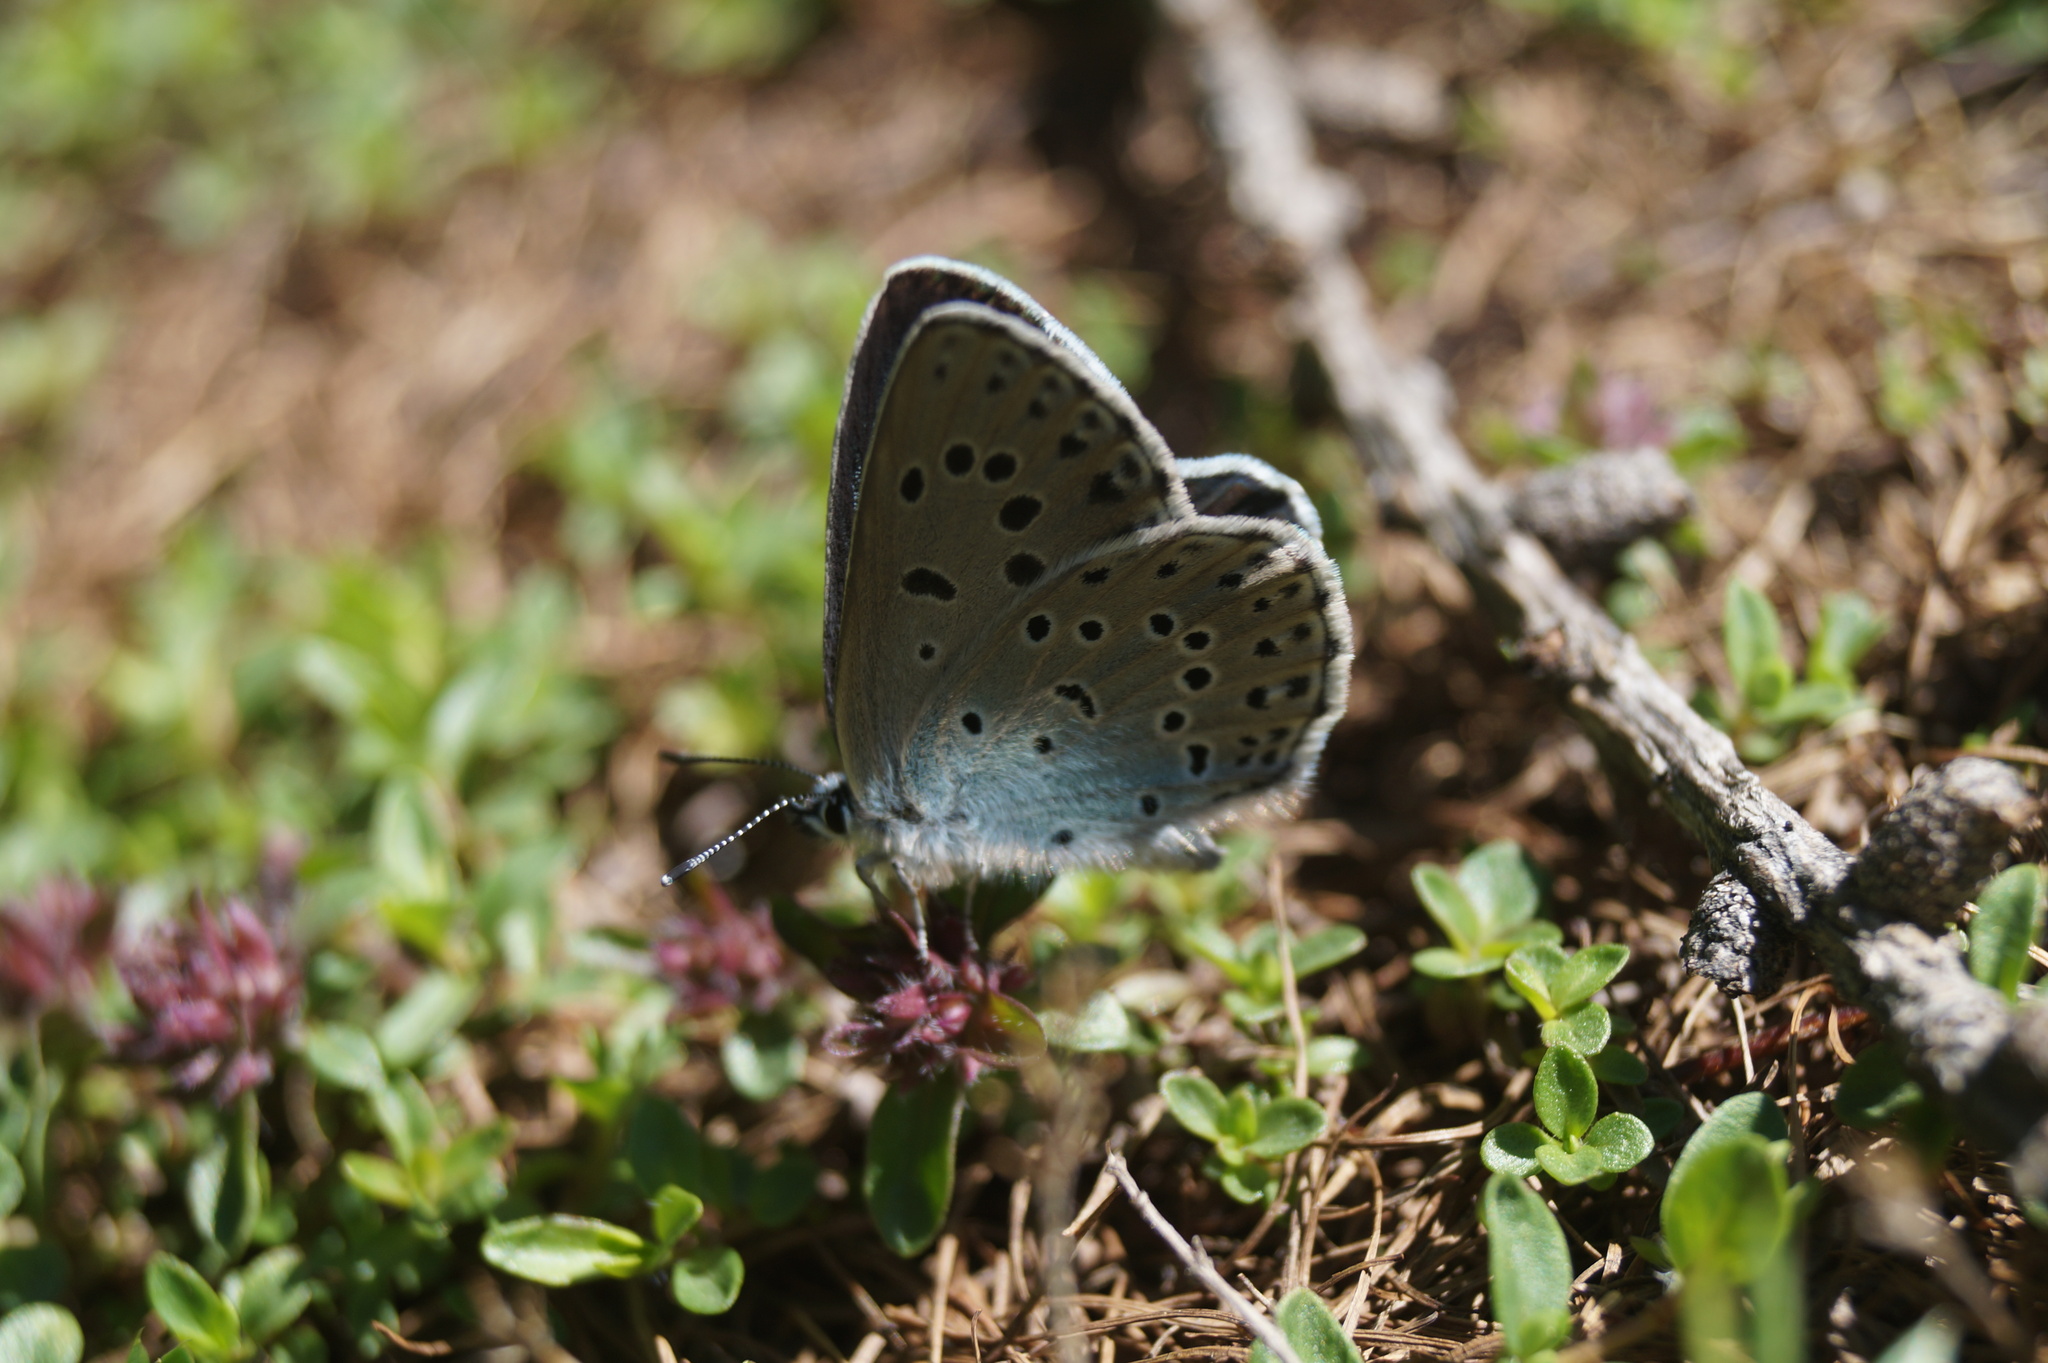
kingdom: Animalia
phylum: Arthropoda
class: Insecta
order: Lepidoptera
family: Lycaenidae
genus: Maculinea
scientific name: Maculinea arion
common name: Large blue
